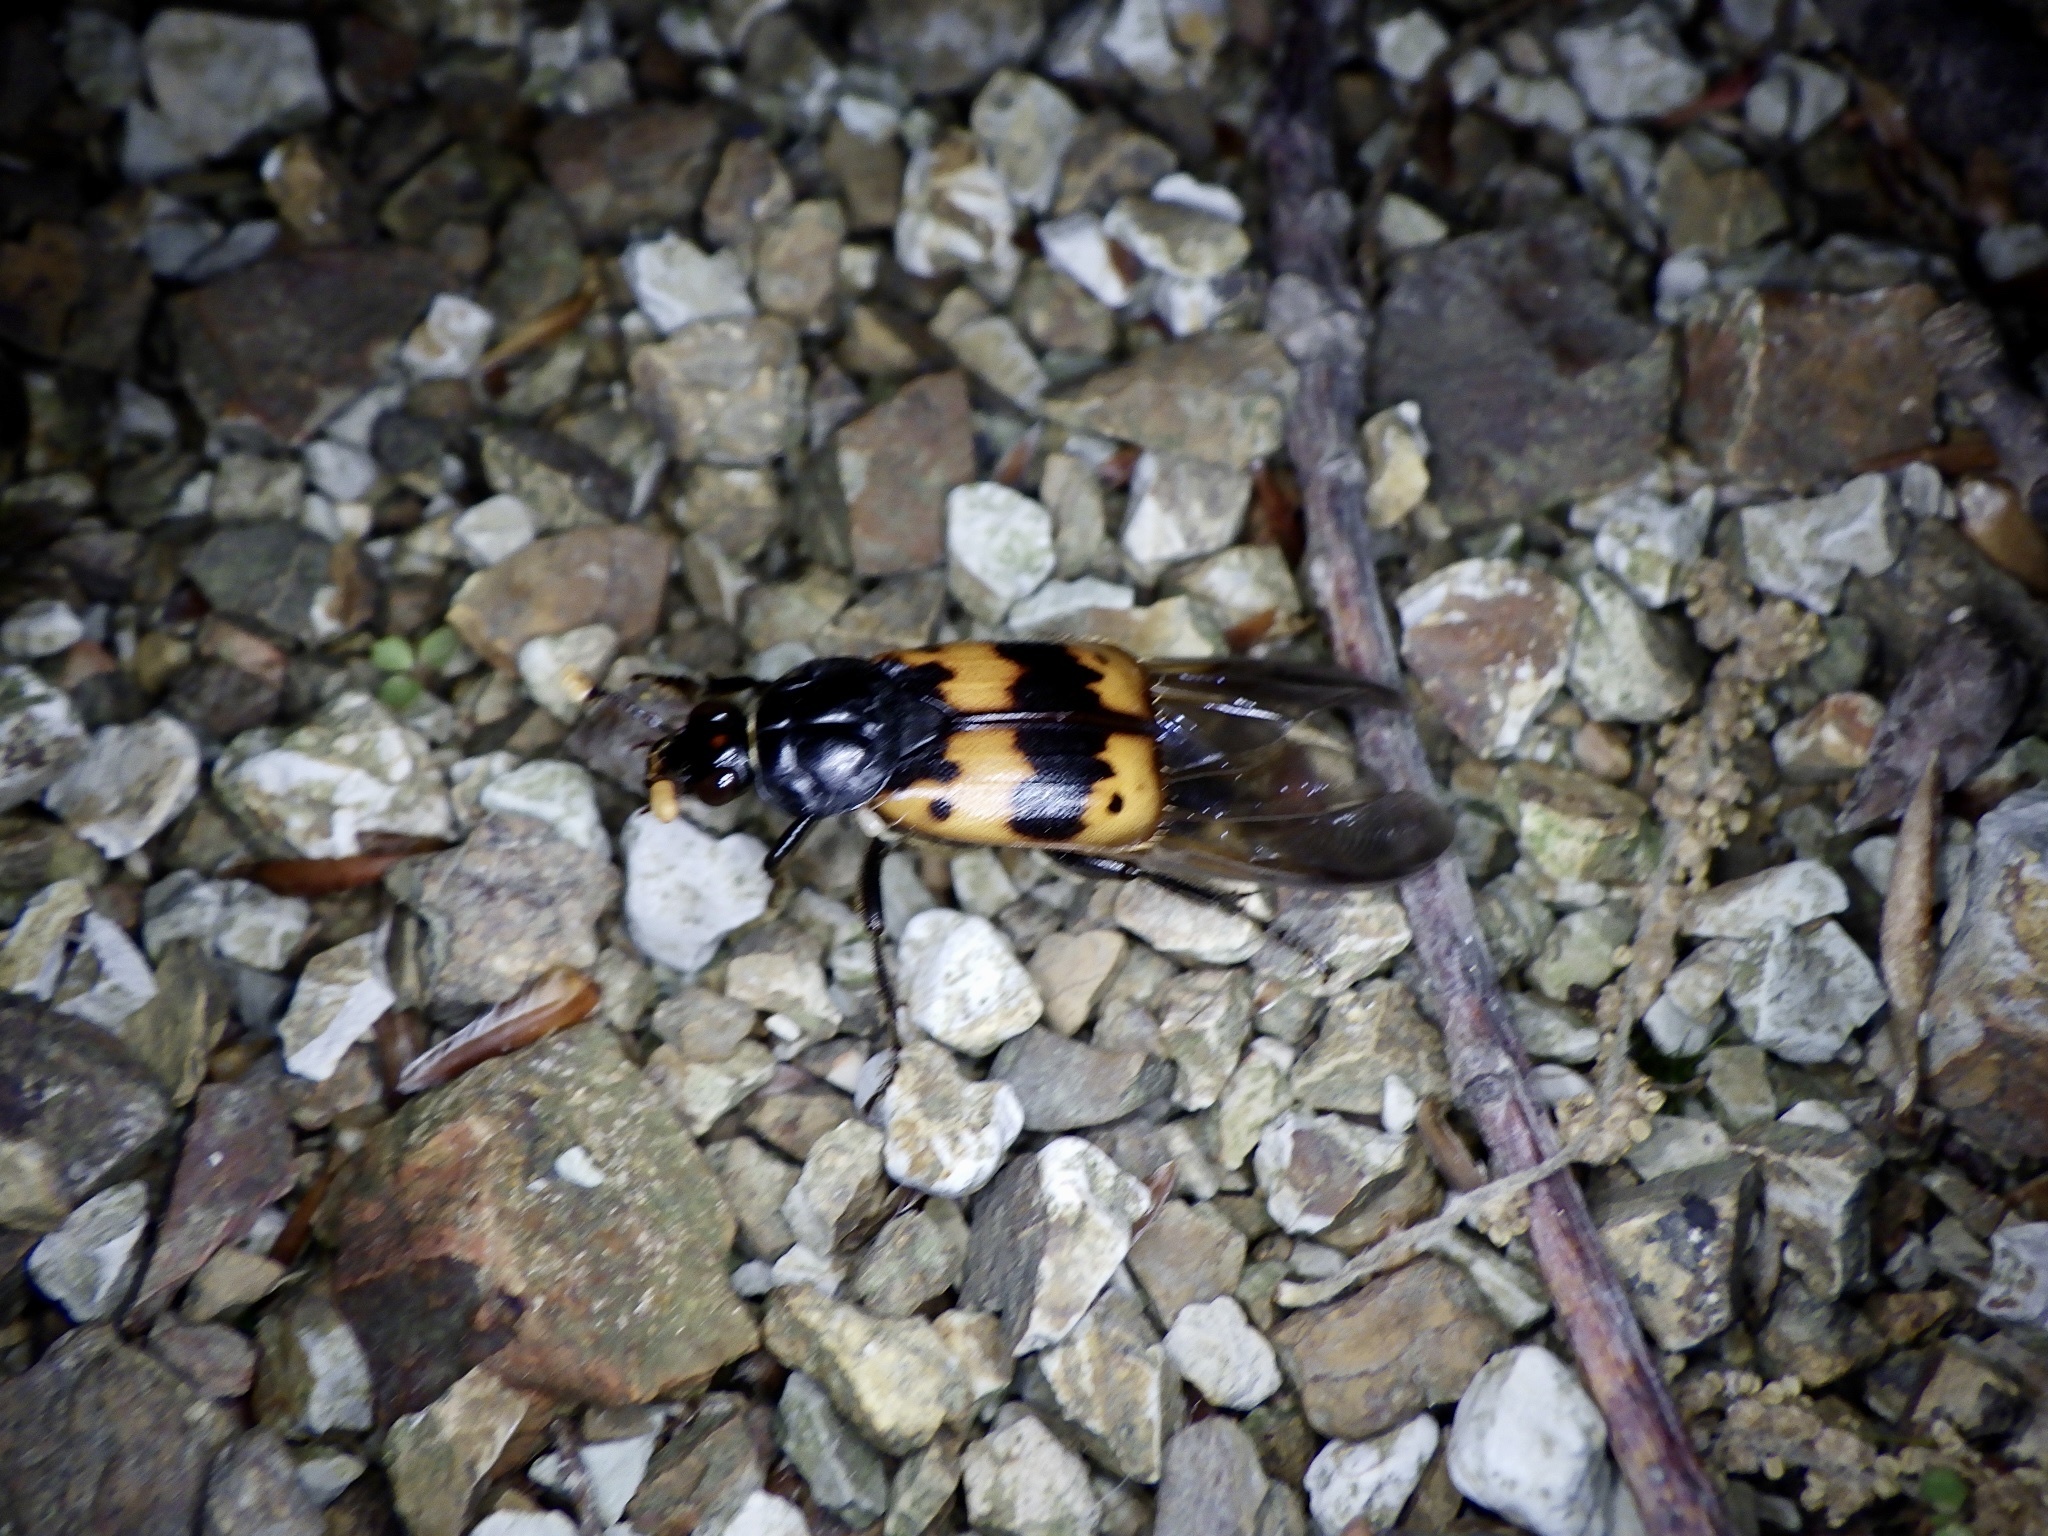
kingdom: Animalia
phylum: Arthropoda
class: Insecta
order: Coleoptera
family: Staphylinidae
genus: Nicrophorus
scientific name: Nicrophorus quadripunctatus
